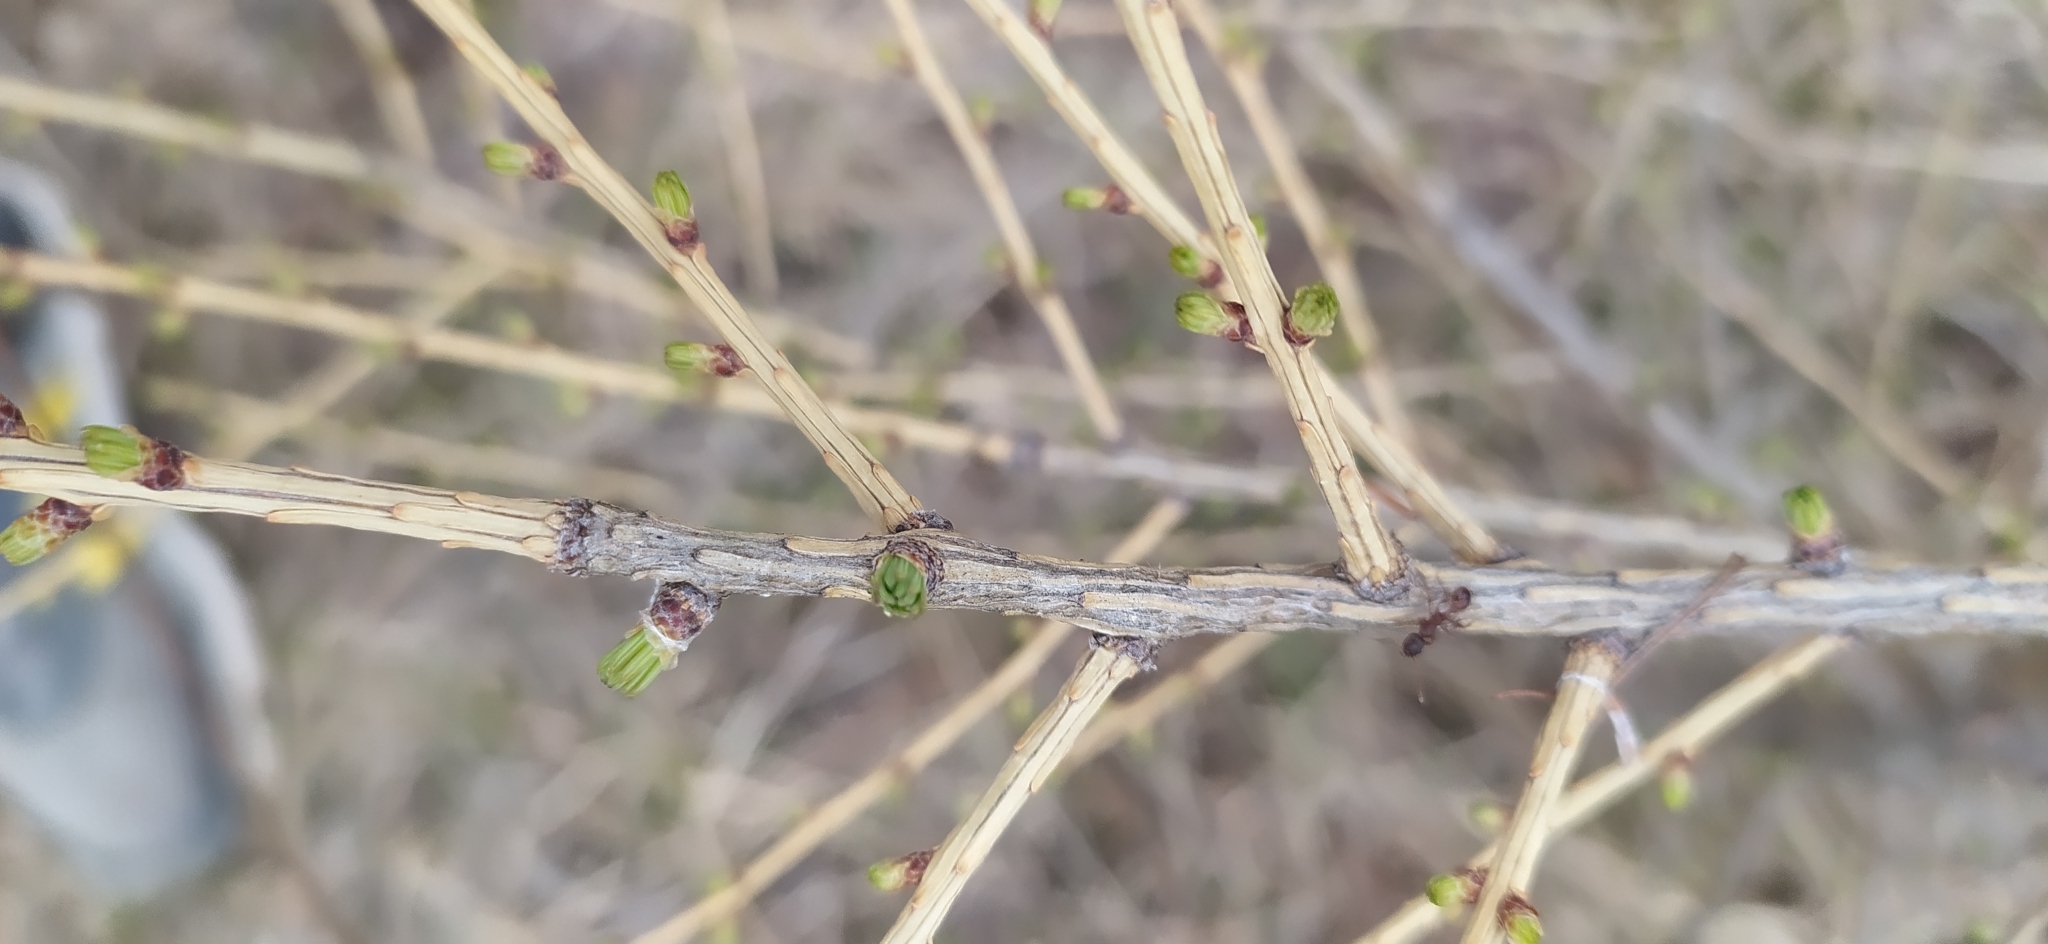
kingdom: Plantae
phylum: Tracheophyta
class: Pinopsida
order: Pinales
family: Pinaceae
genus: Larix
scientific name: Larix sibirica
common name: Siberian larch
